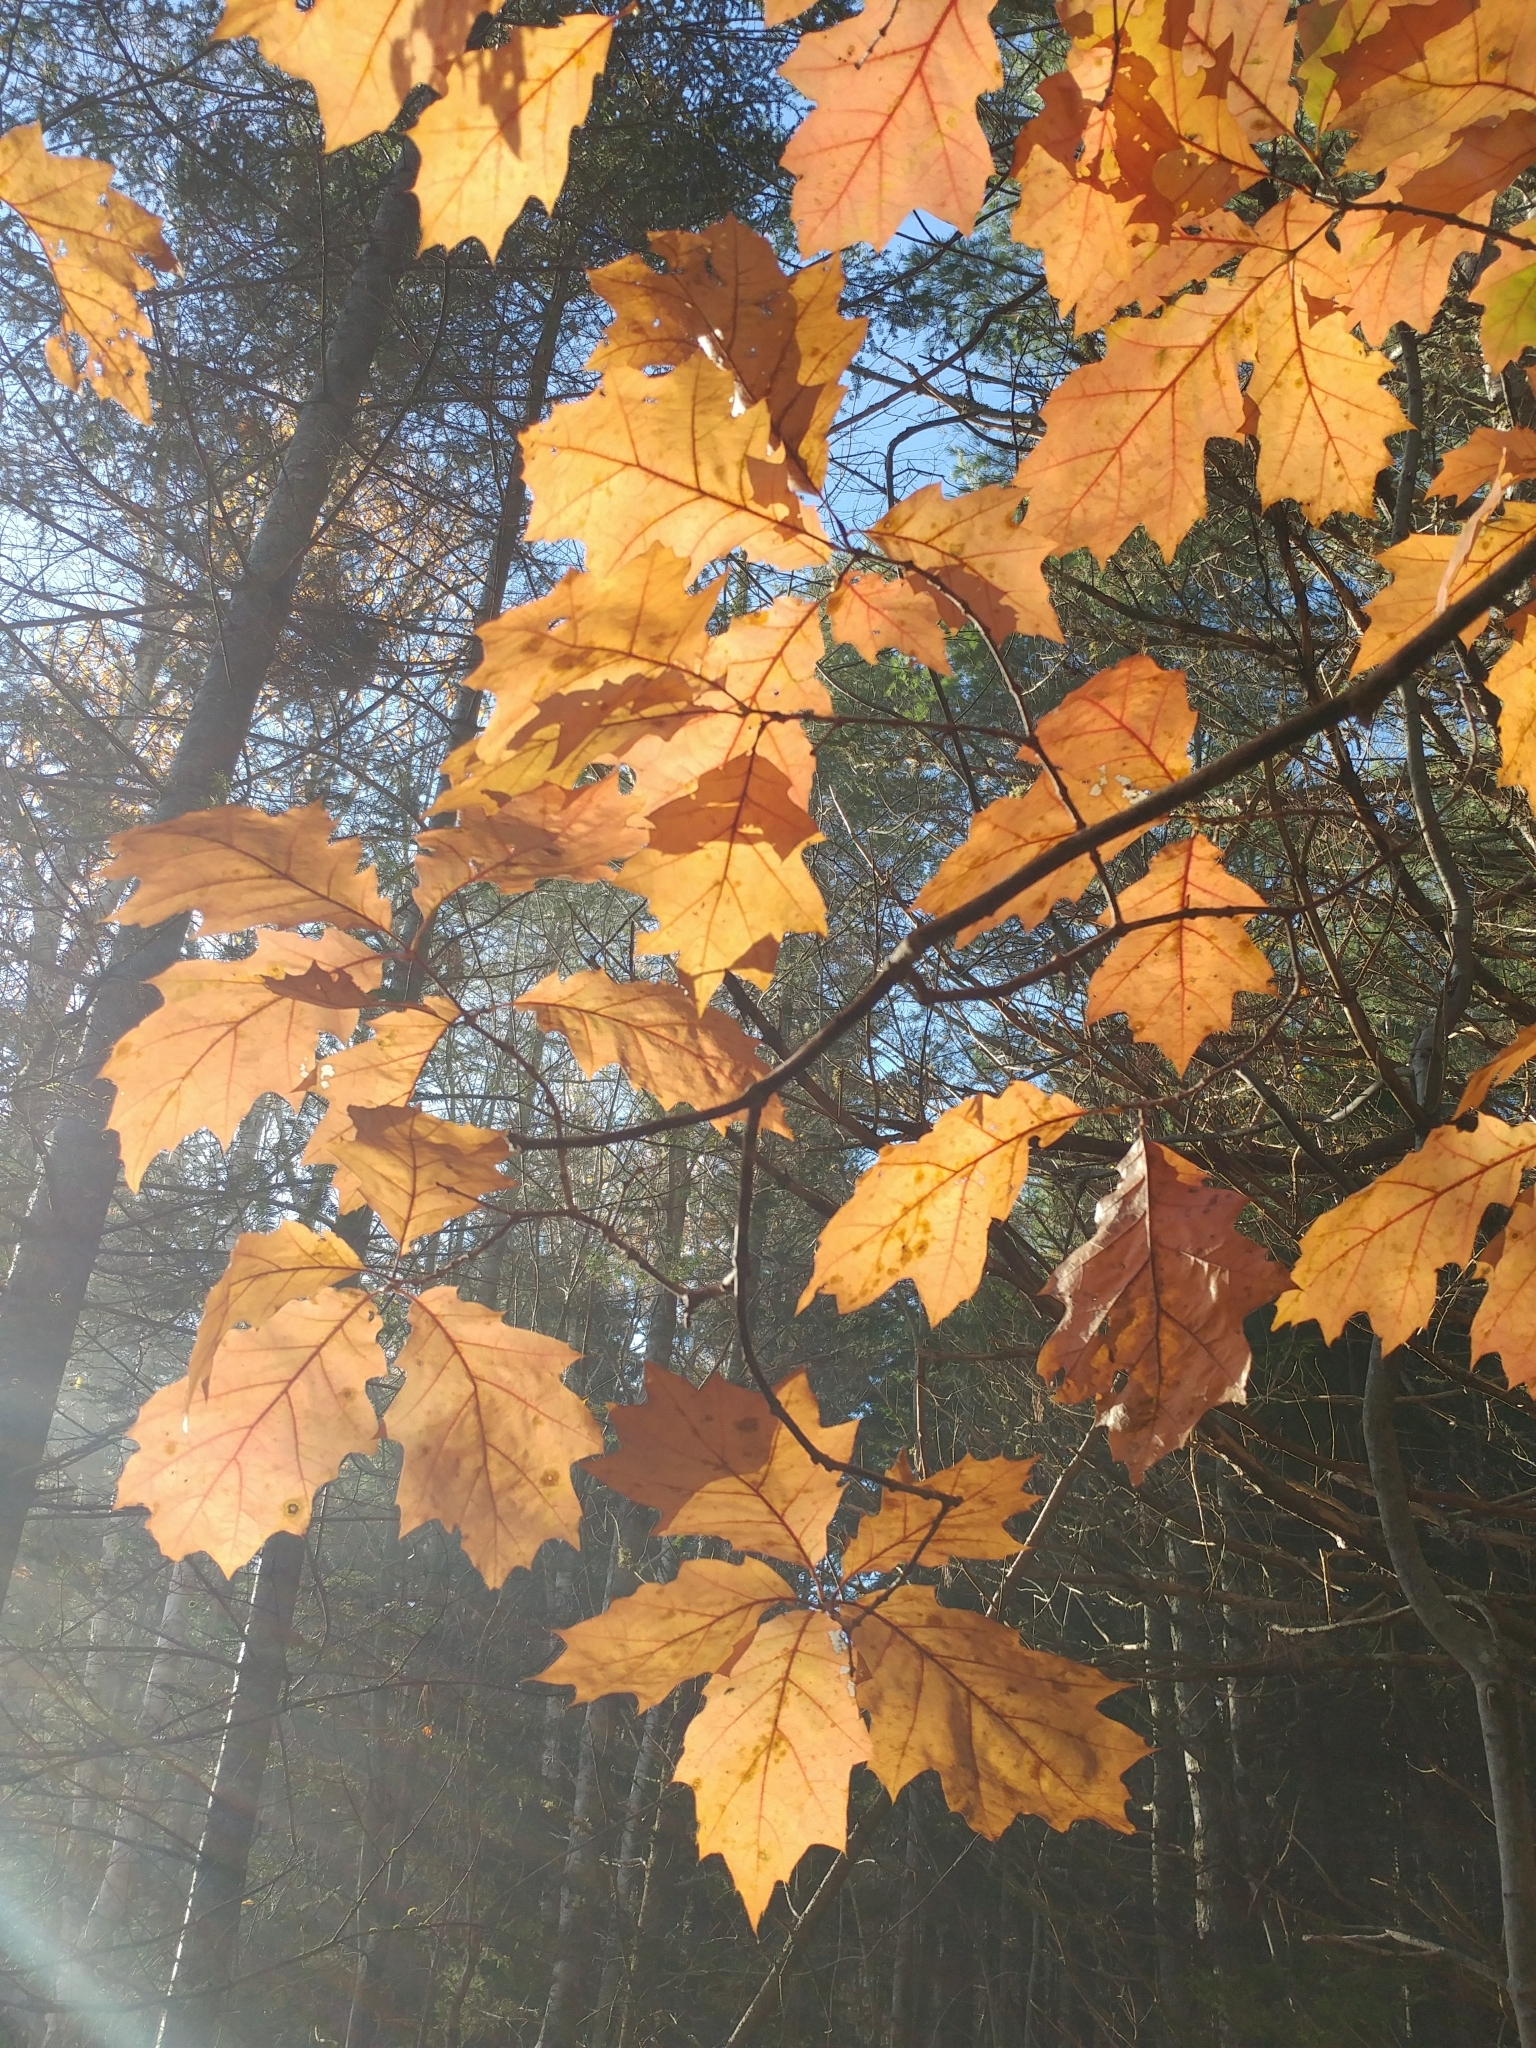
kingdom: Plantae
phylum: Tracheophyta
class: Magnoliopsida
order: Fagales
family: Fagaceae
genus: Quercus
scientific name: Quercus rubra
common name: Red oak
